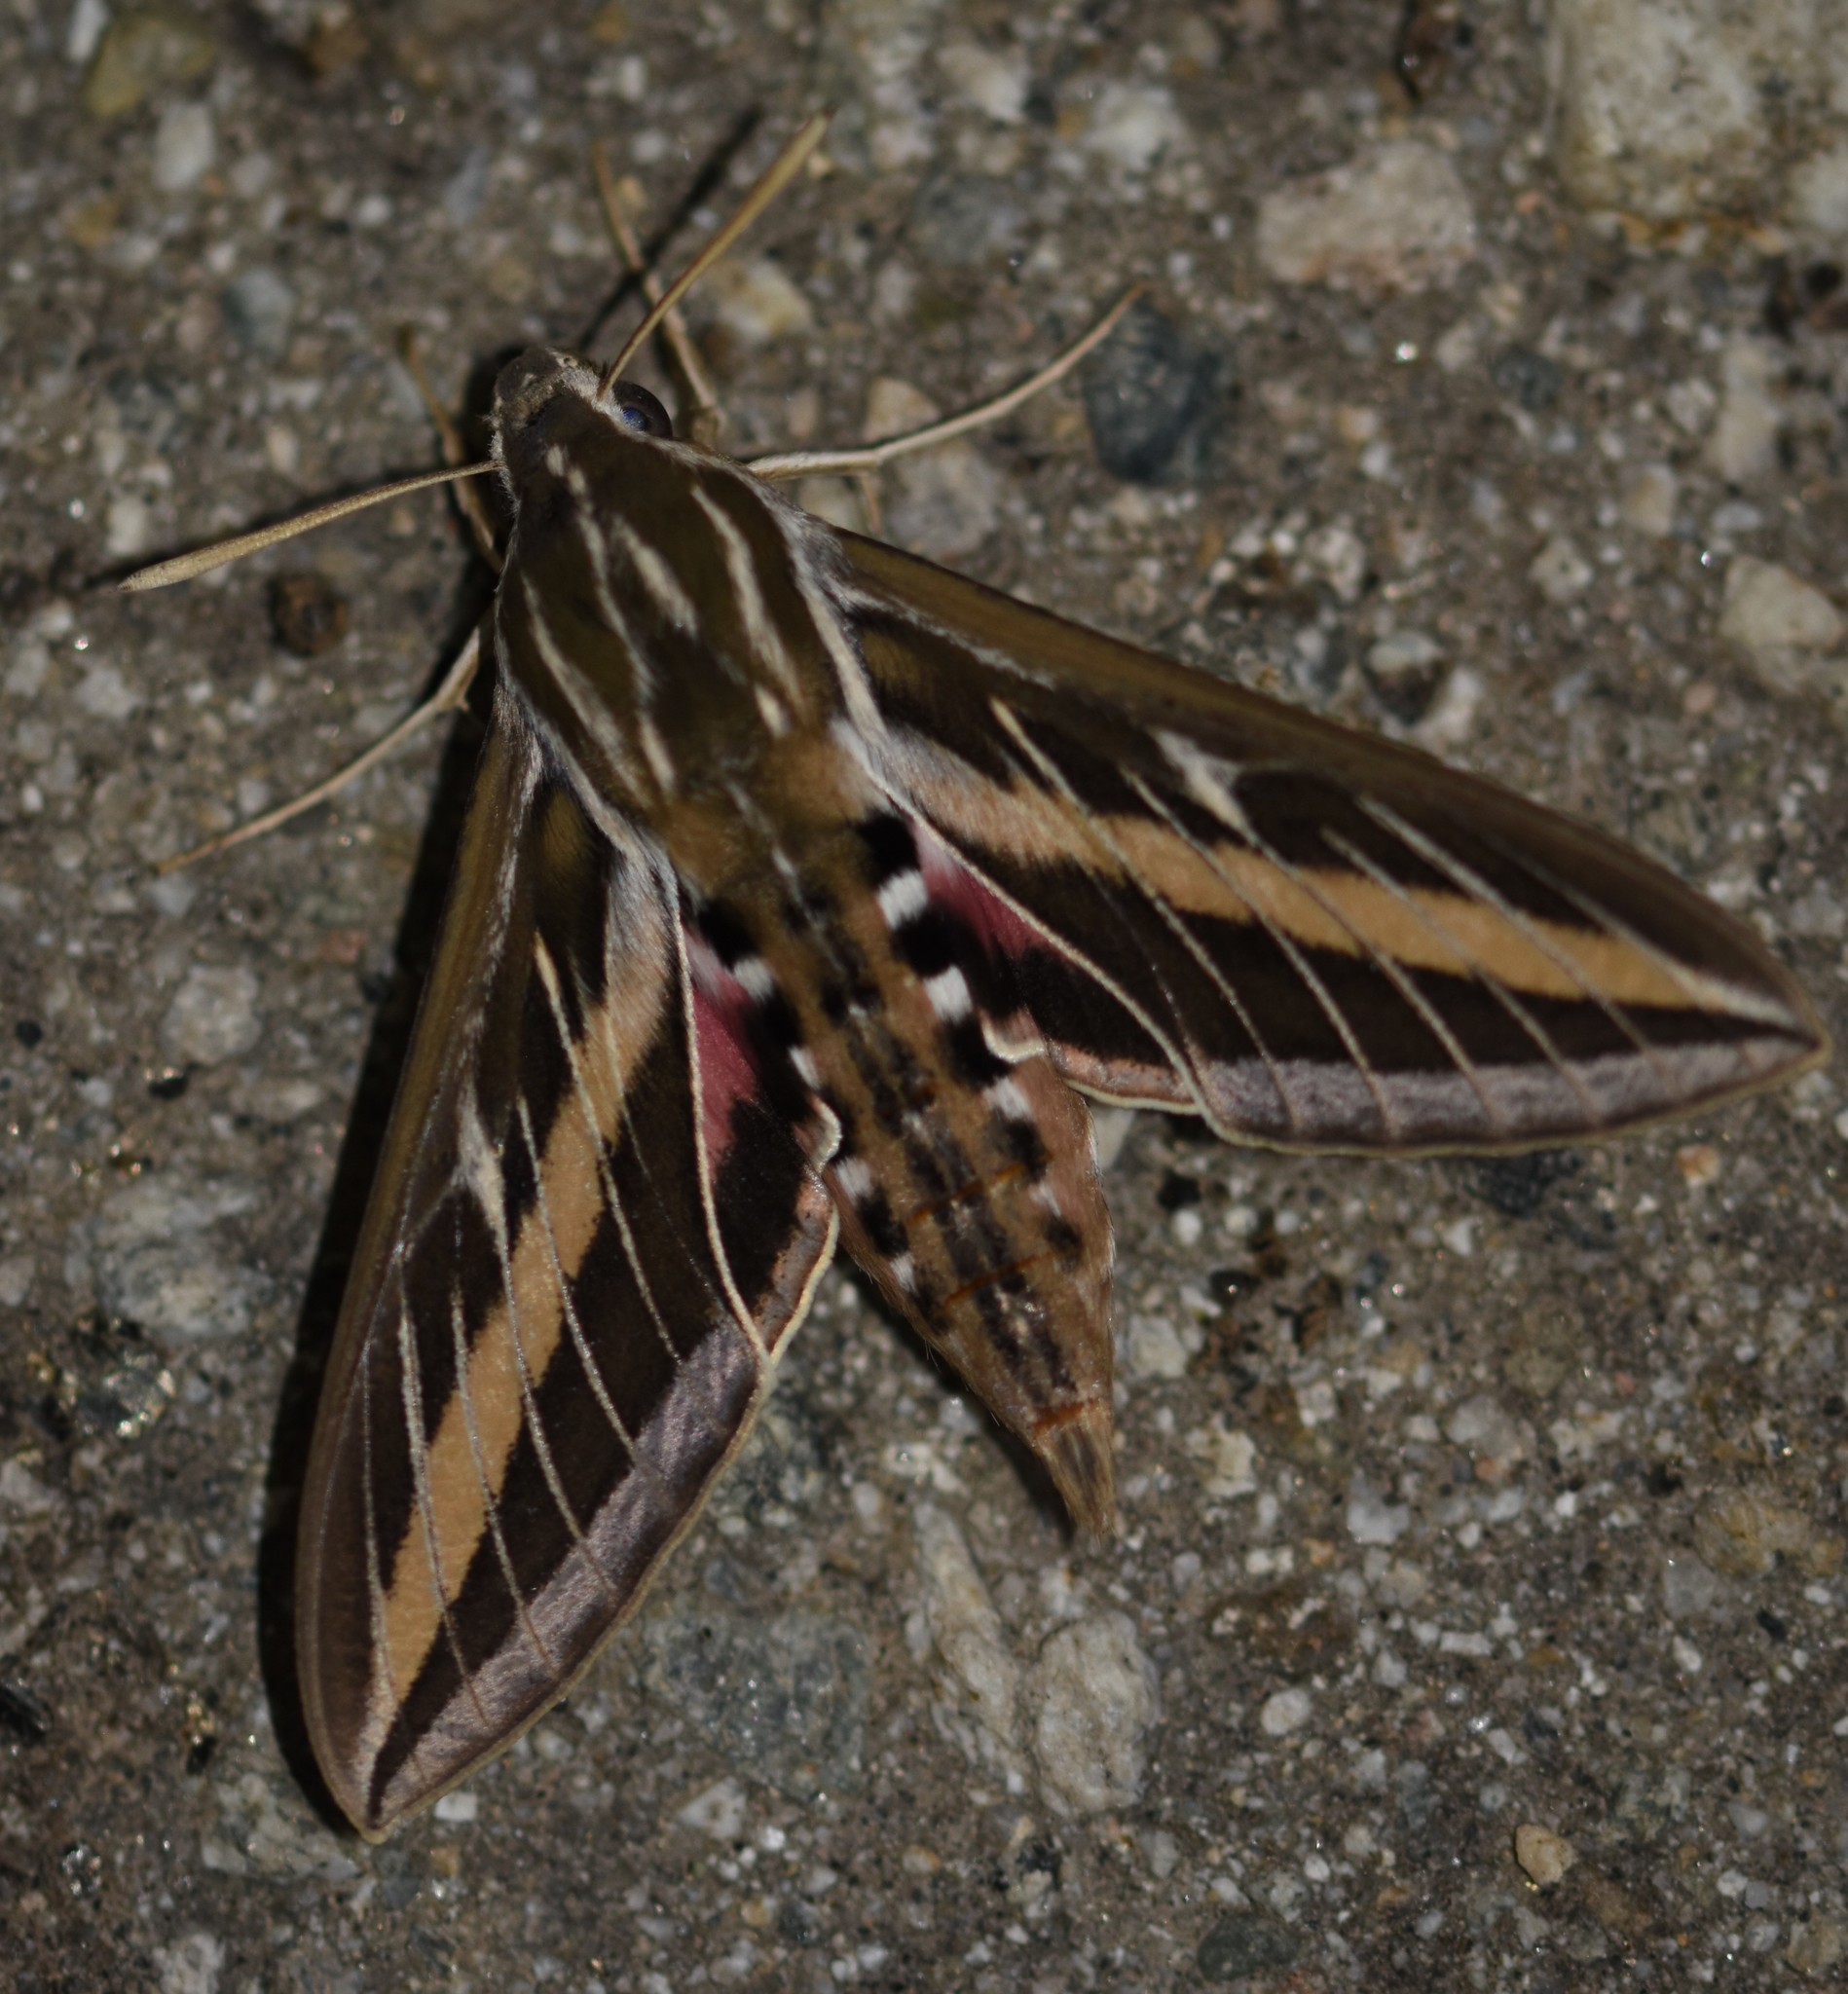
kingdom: Animalia
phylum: Arthropoda
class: Insecta
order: Lepidoptera
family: Sphingidae
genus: Hyles
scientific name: Hyles lineata
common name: White-lined sphinx
